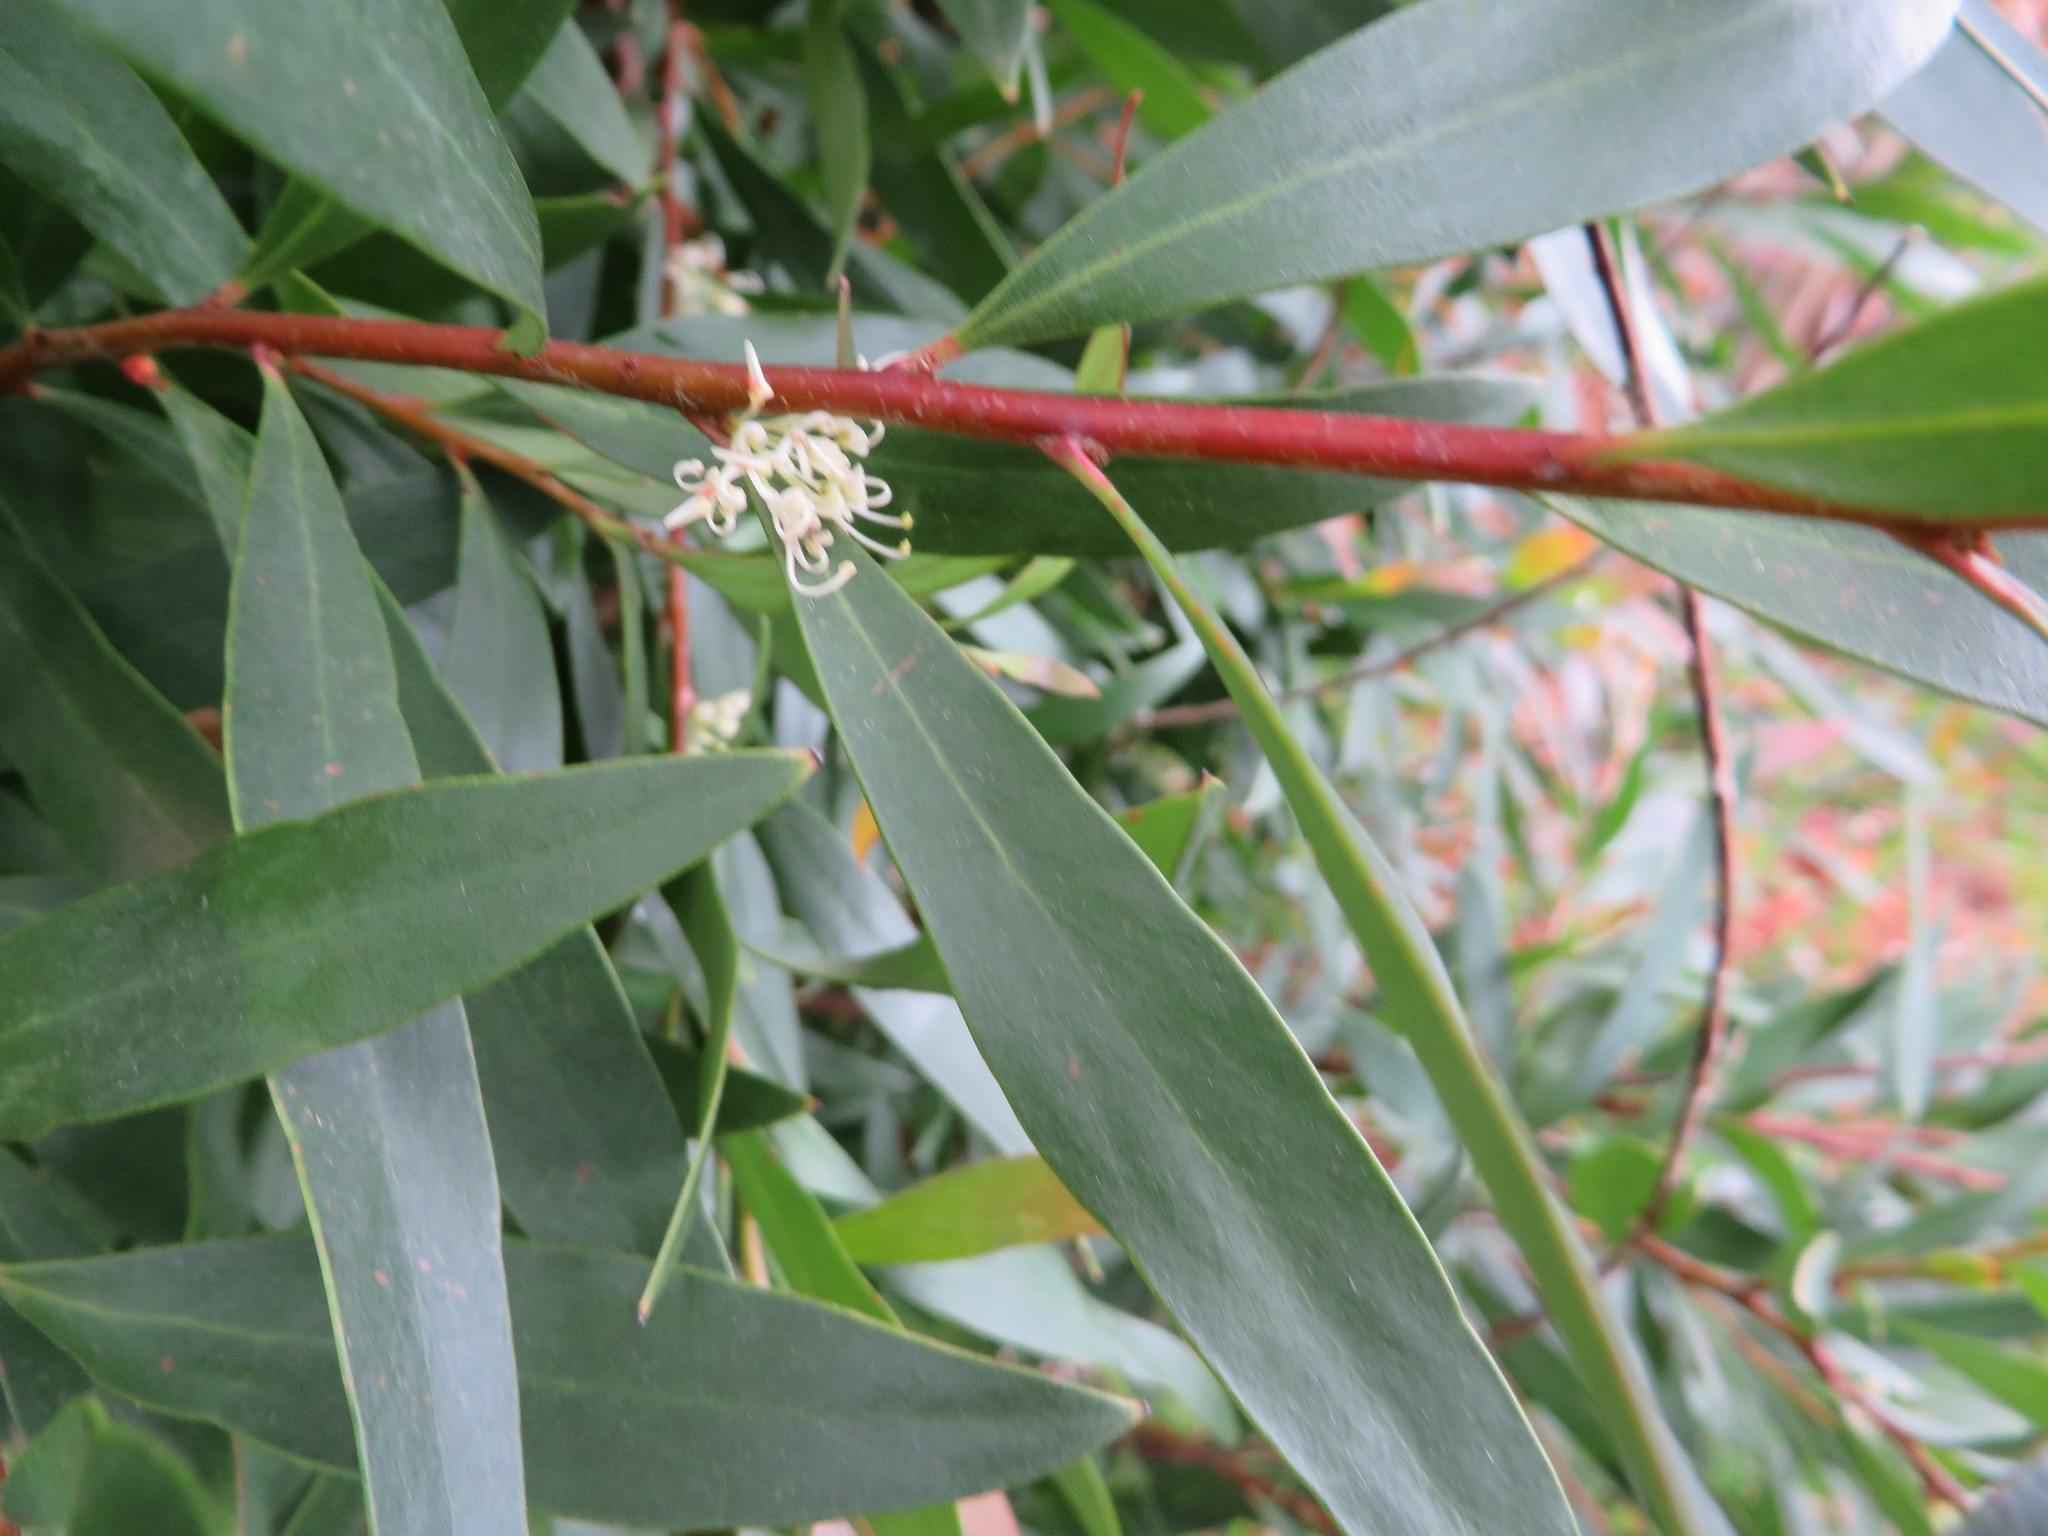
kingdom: Plantae
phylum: Tracheophyta
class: Magnoliopsida
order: Proteales
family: Proteaceae
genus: Hakea
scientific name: Hakea salicifolia
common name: Willow hakea
